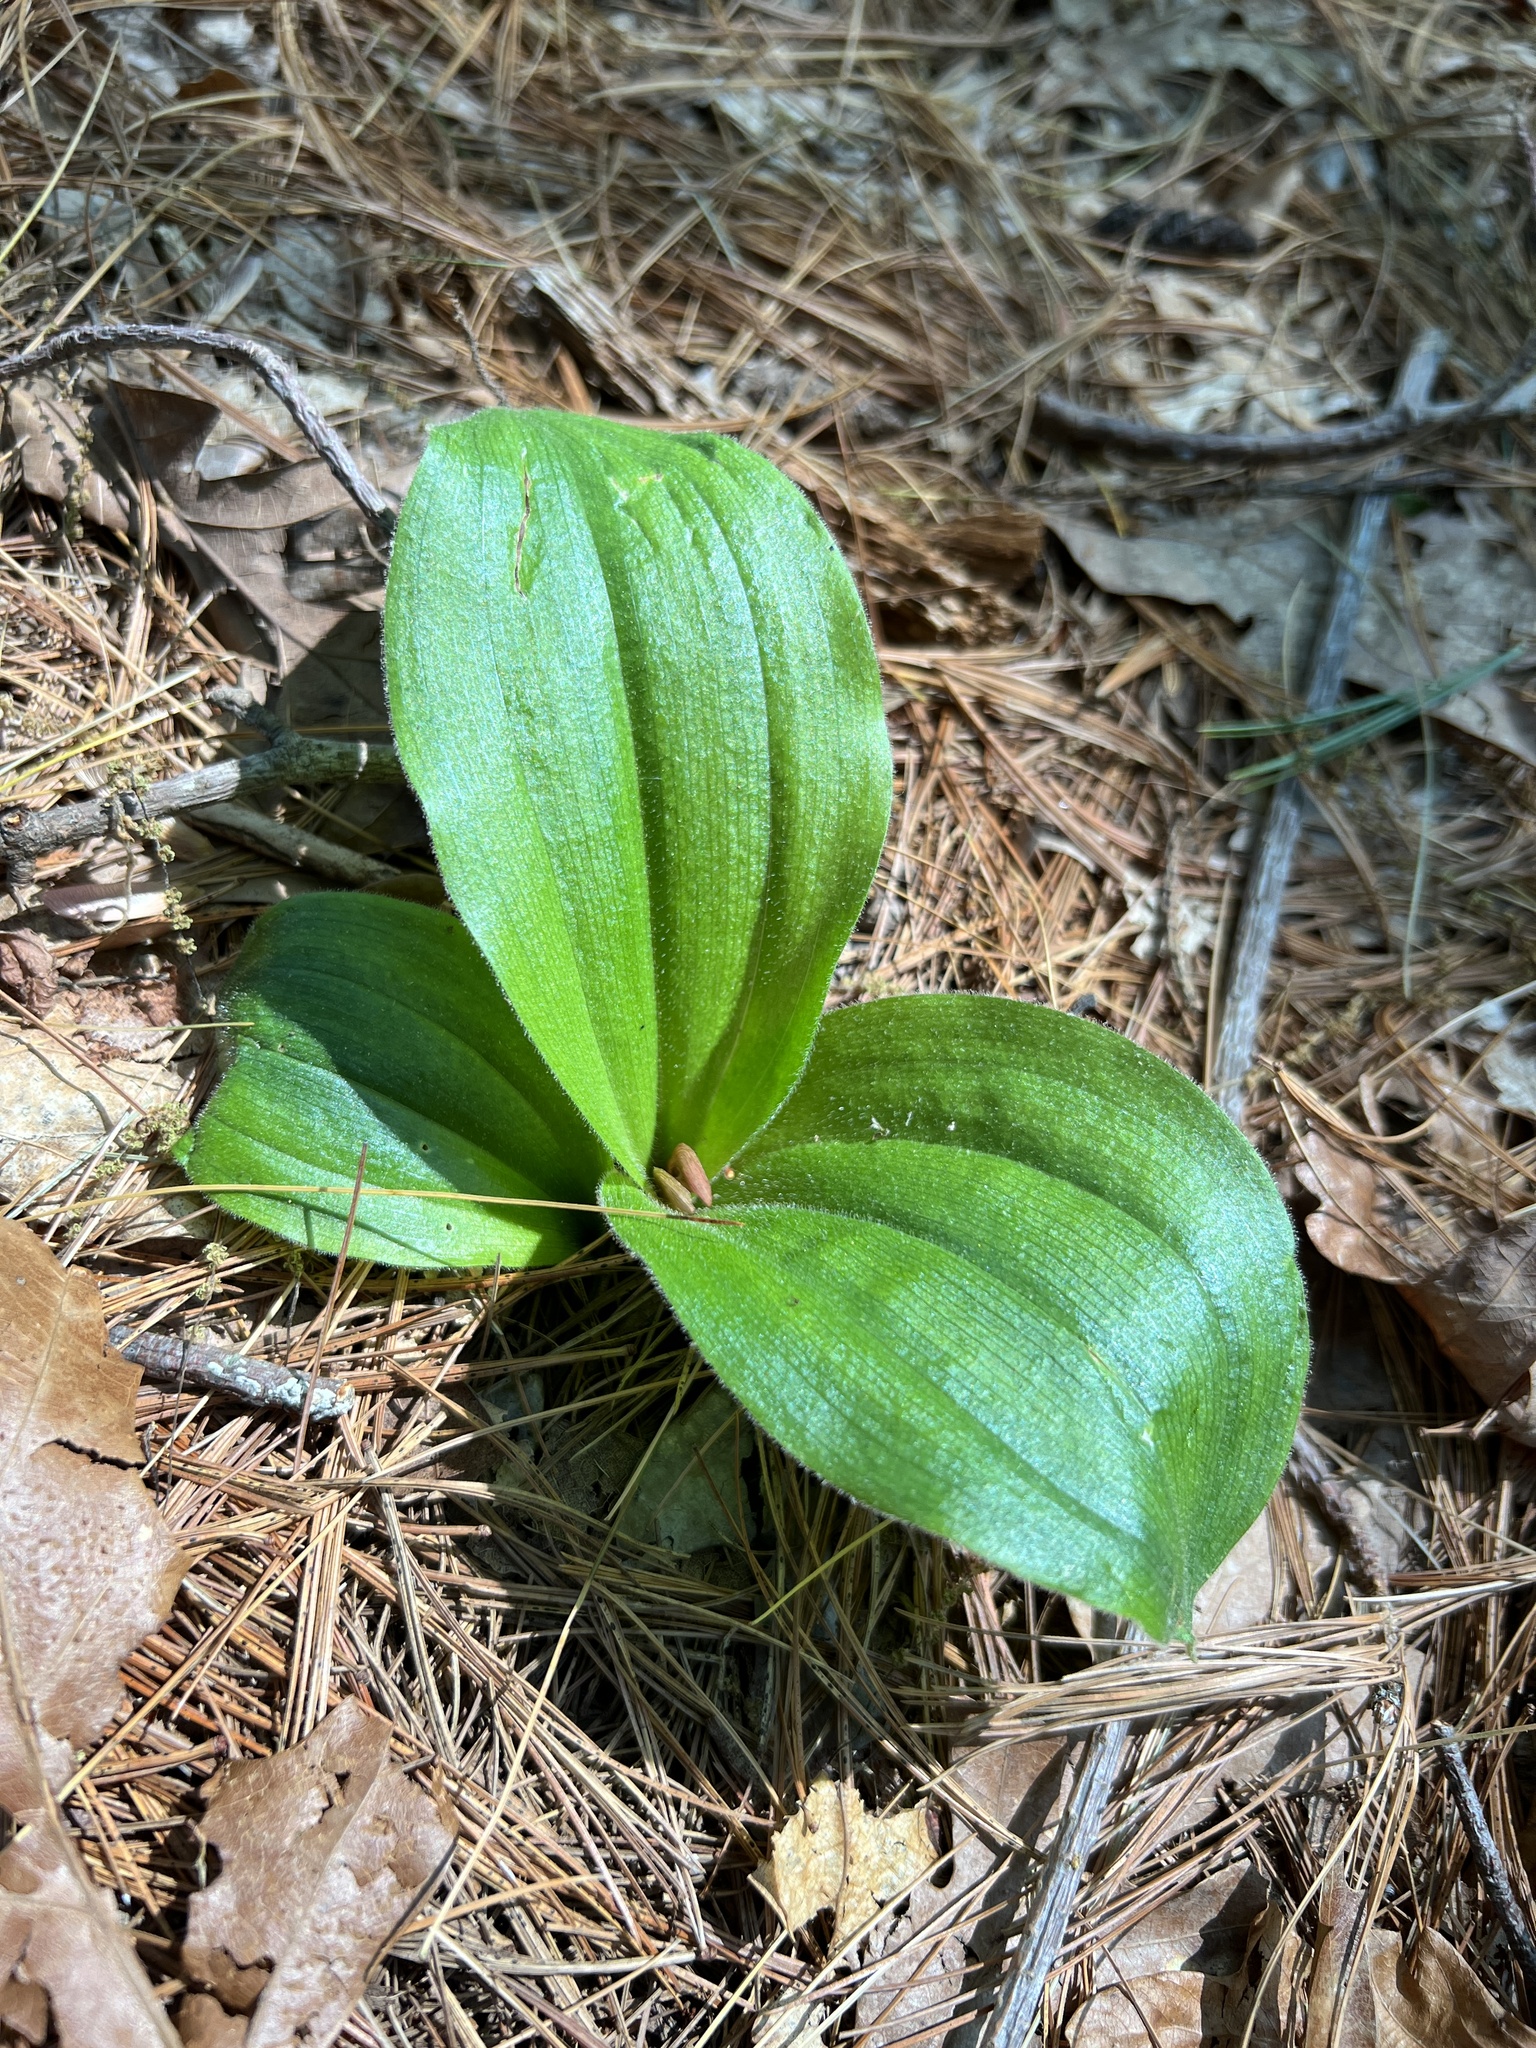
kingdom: Plantae
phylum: Tracheophyta
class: Liliopsida
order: Asparagales
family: Orchidaceae
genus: Cypripedium
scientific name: Cypripedium acaule
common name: Pink lady's-slipper
